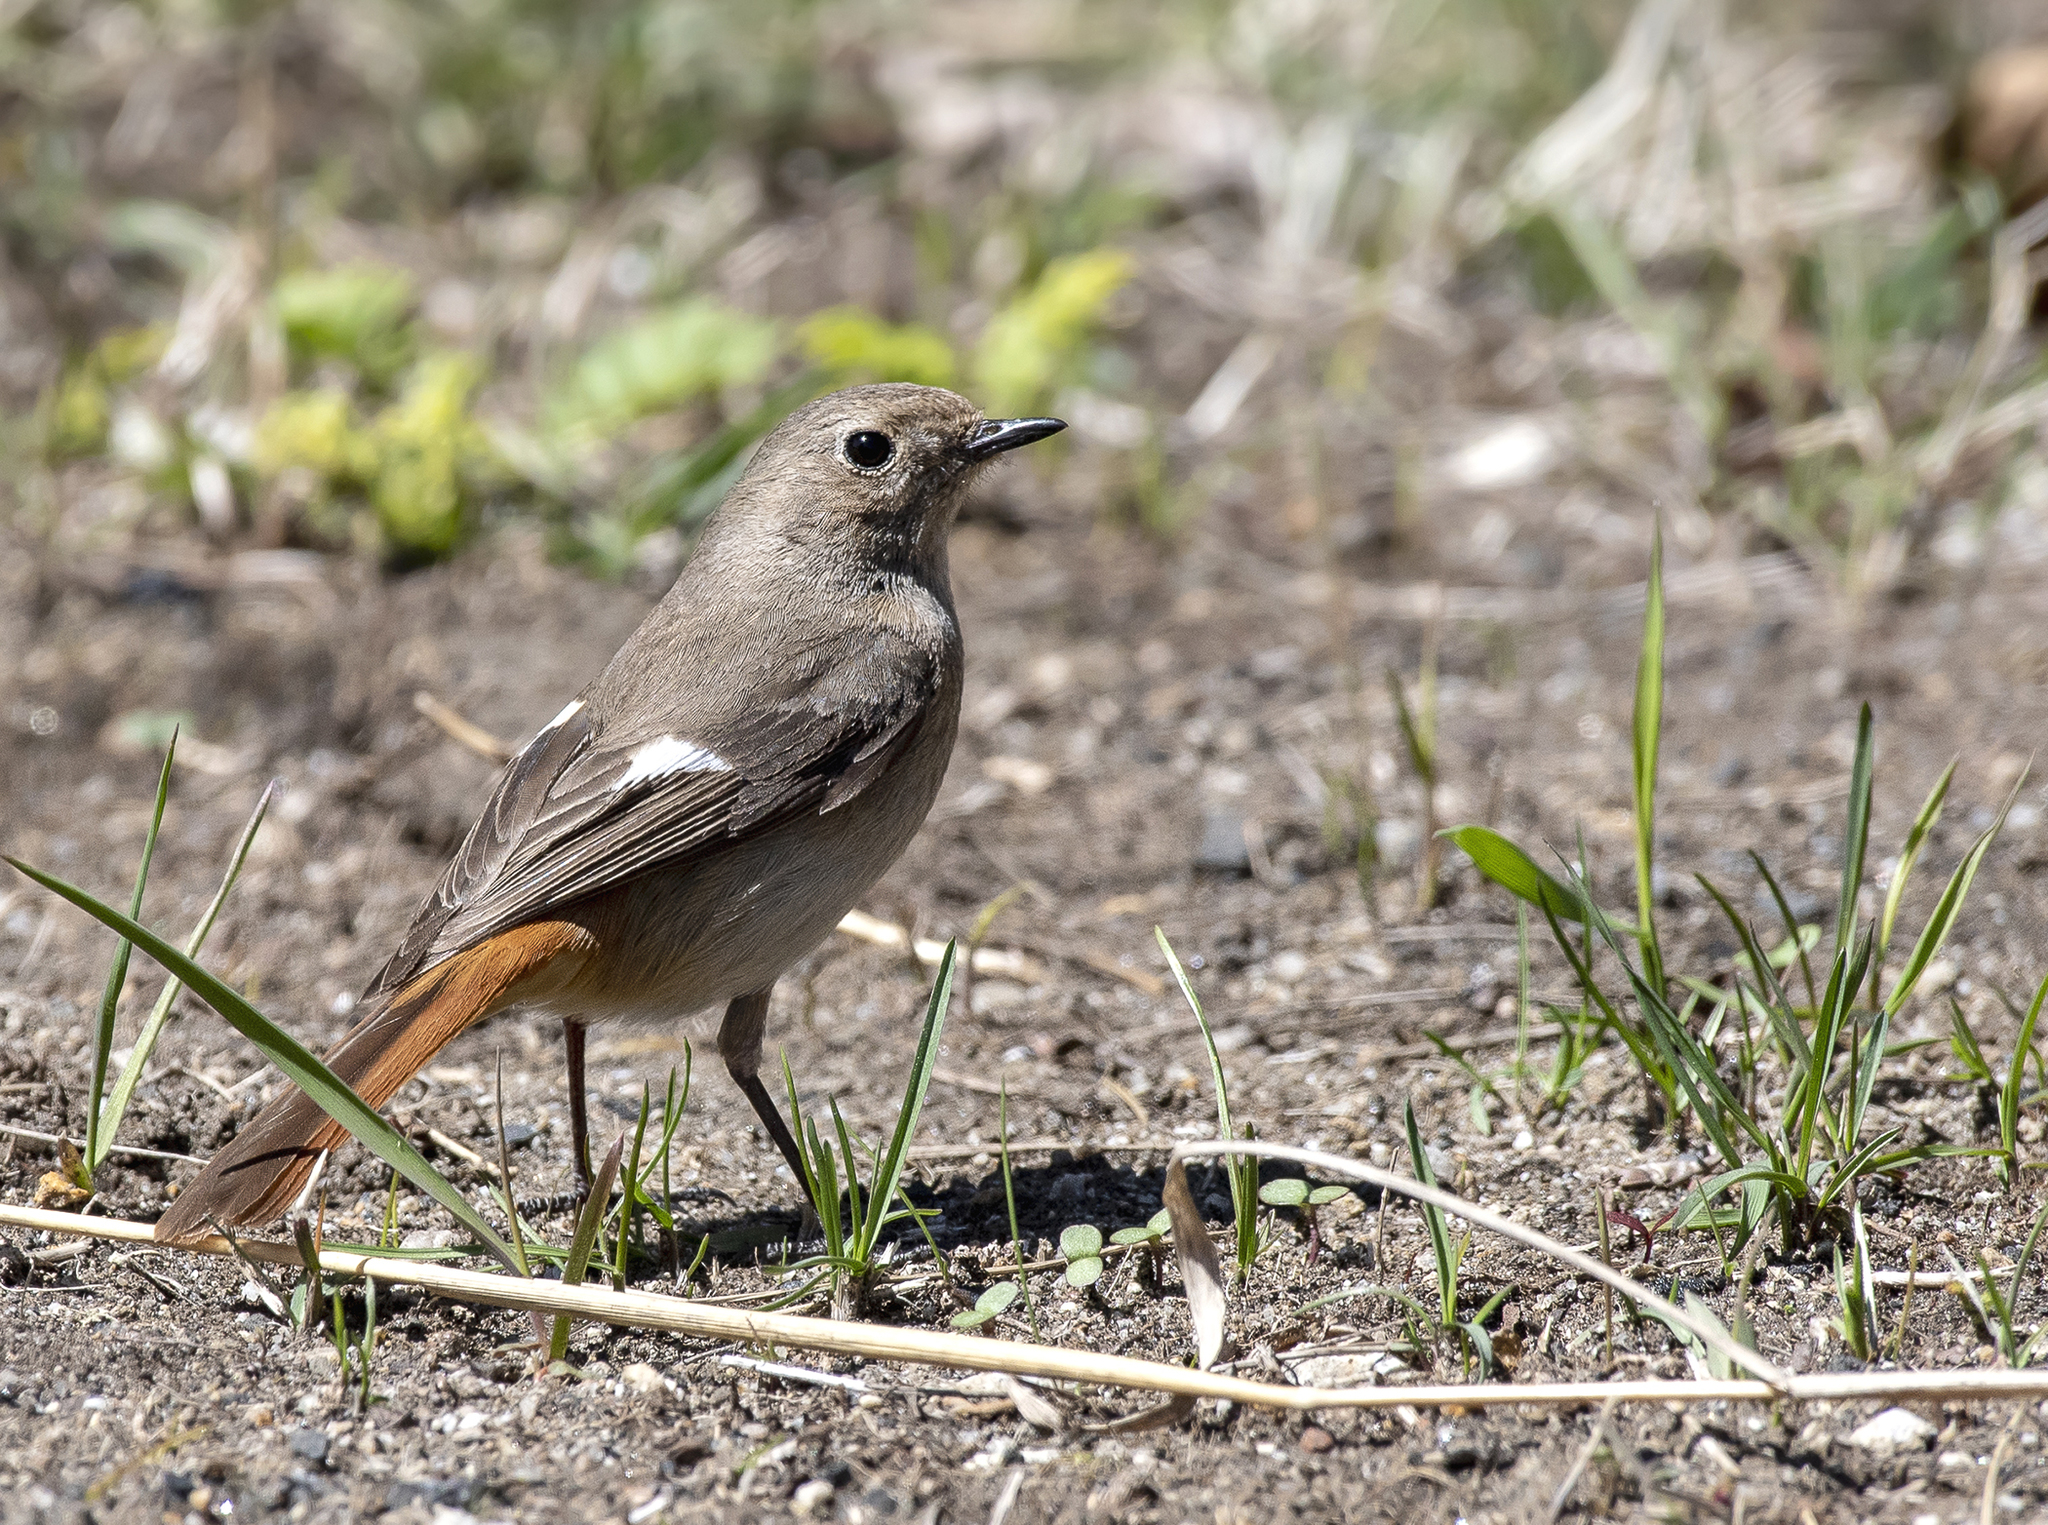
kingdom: Animalia
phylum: Chordata
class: Aves
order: Passeriformes
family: Muscicapidae
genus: Phoenicurus
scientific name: Phoenicurus auroreus
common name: Daurian redstart
